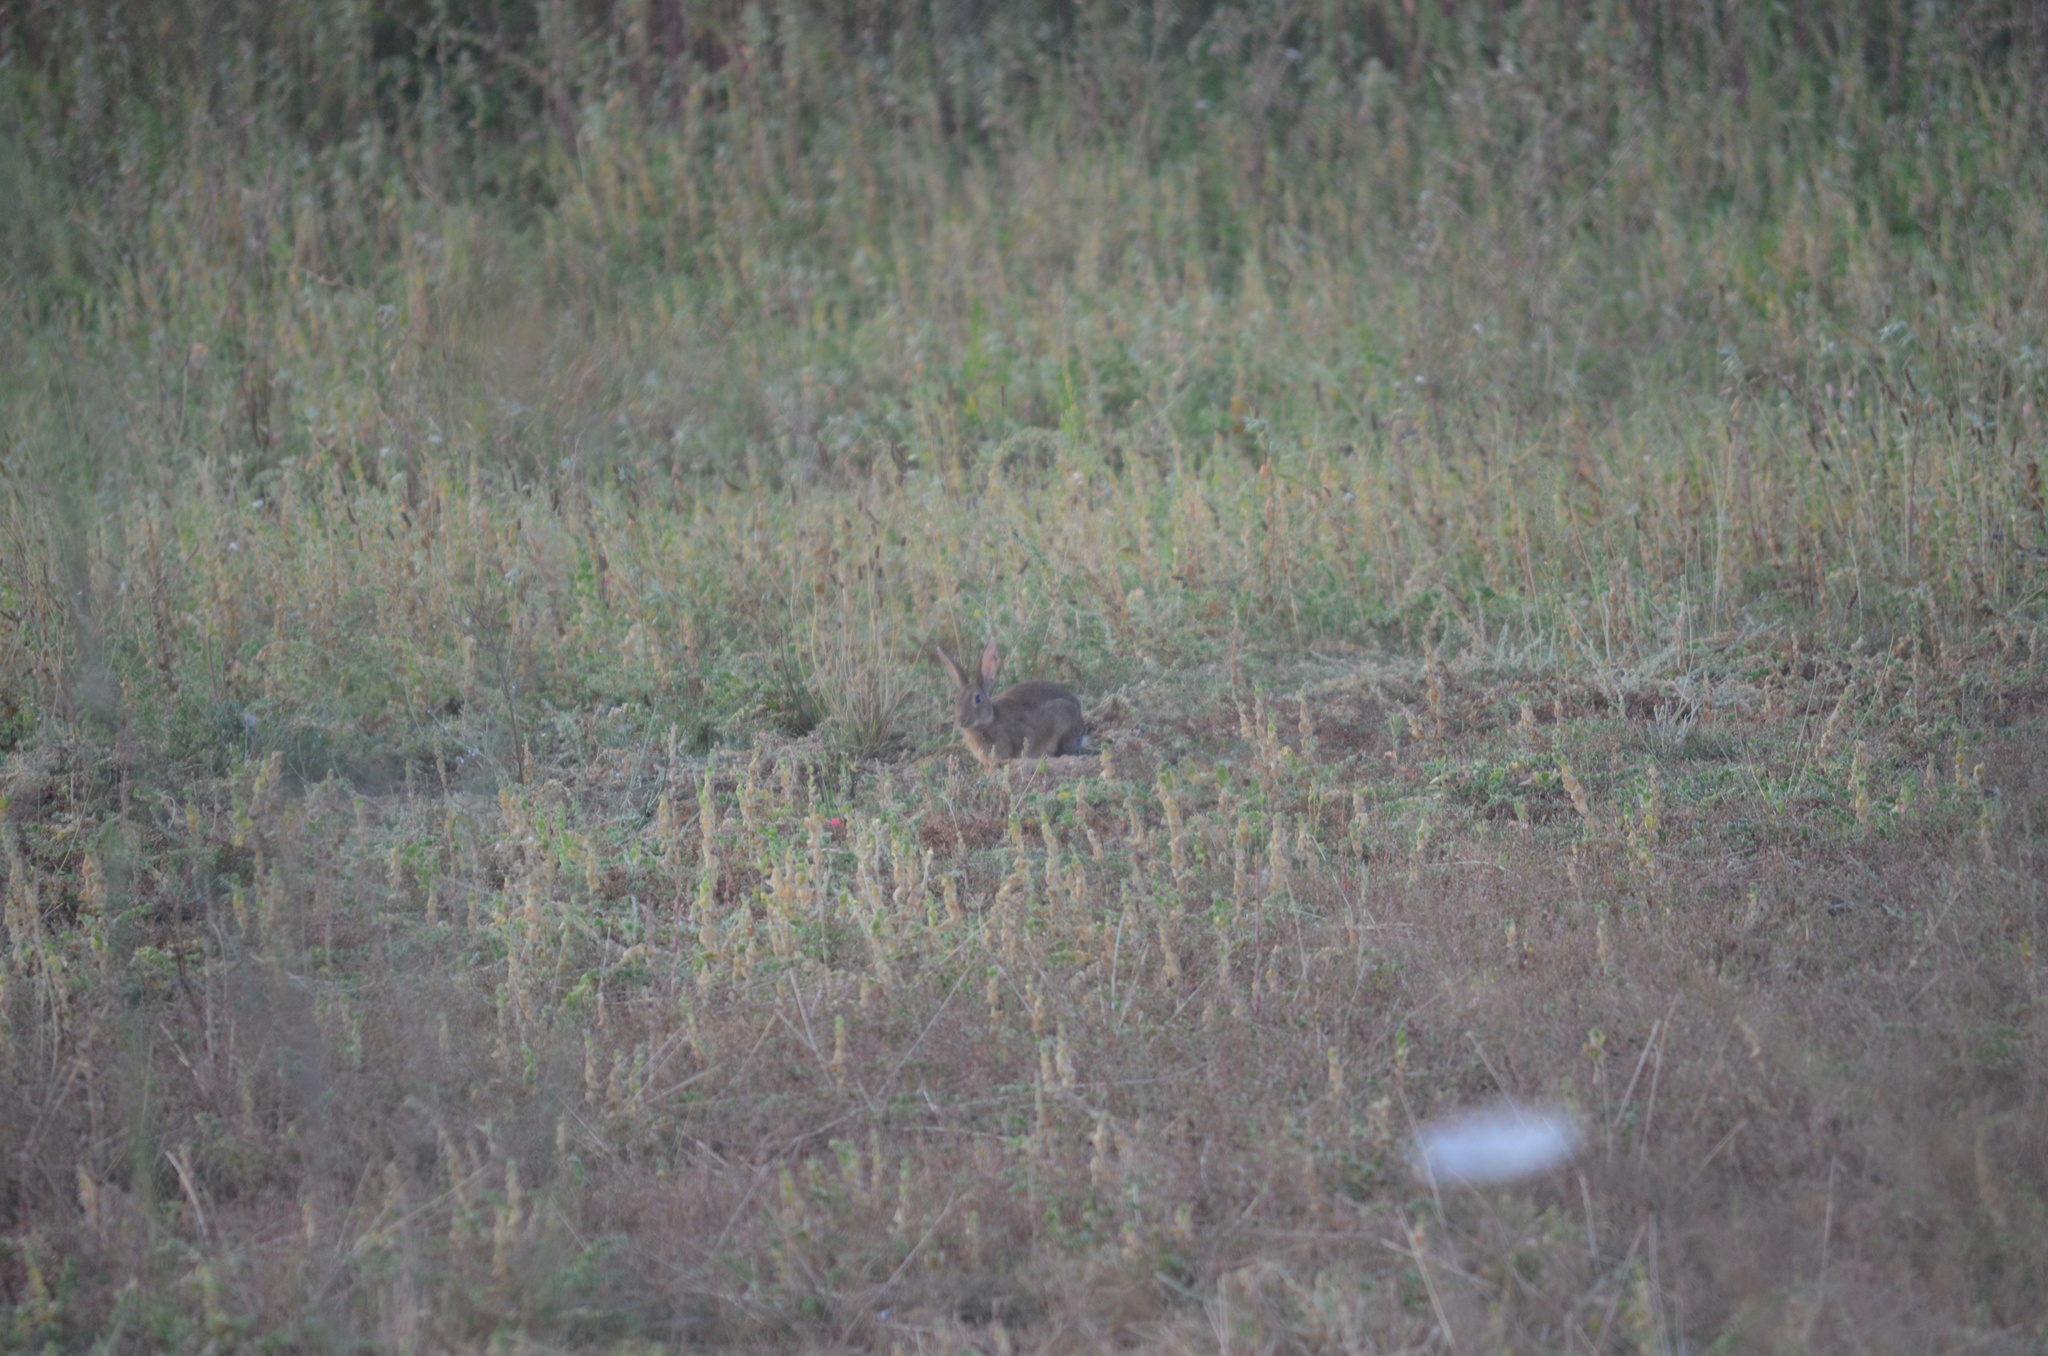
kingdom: Animalia
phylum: Chordata
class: Mammalia
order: Lagomorpha
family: Leporidae
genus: Oryctolagus
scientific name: Oryctolagus cuniculus
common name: European rabbit
